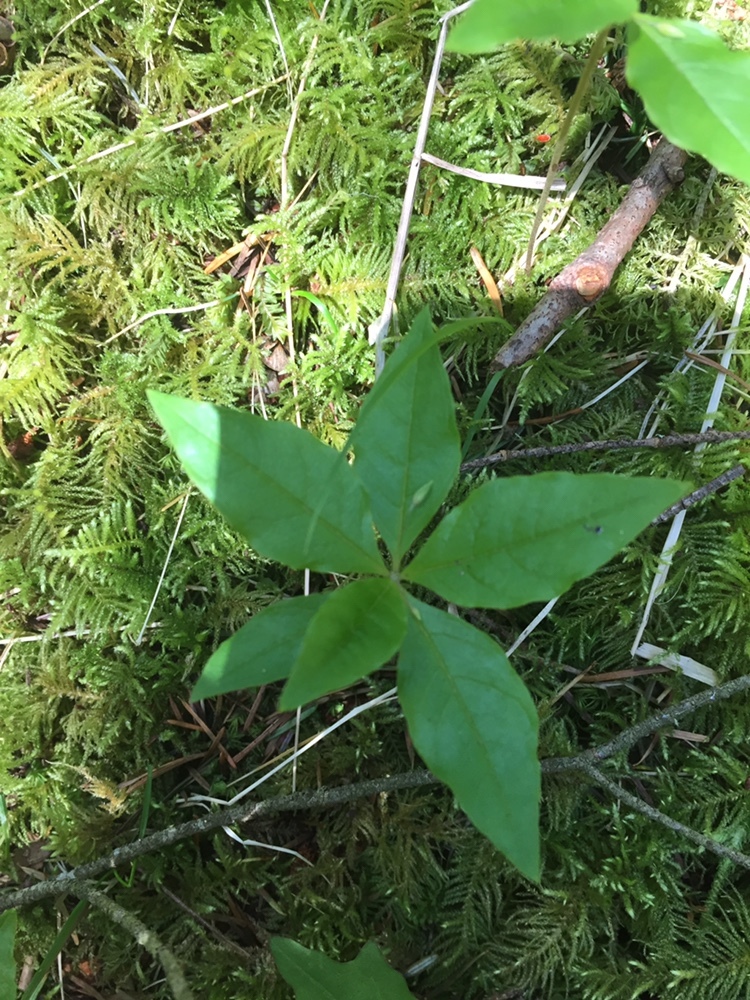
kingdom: Plantae
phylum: Tracheophyta
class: Magnoliopsida
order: Ericales
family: Primulaceae
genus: Lysimachia
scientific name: Lysimachia latifolia
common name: Pacific starflower
